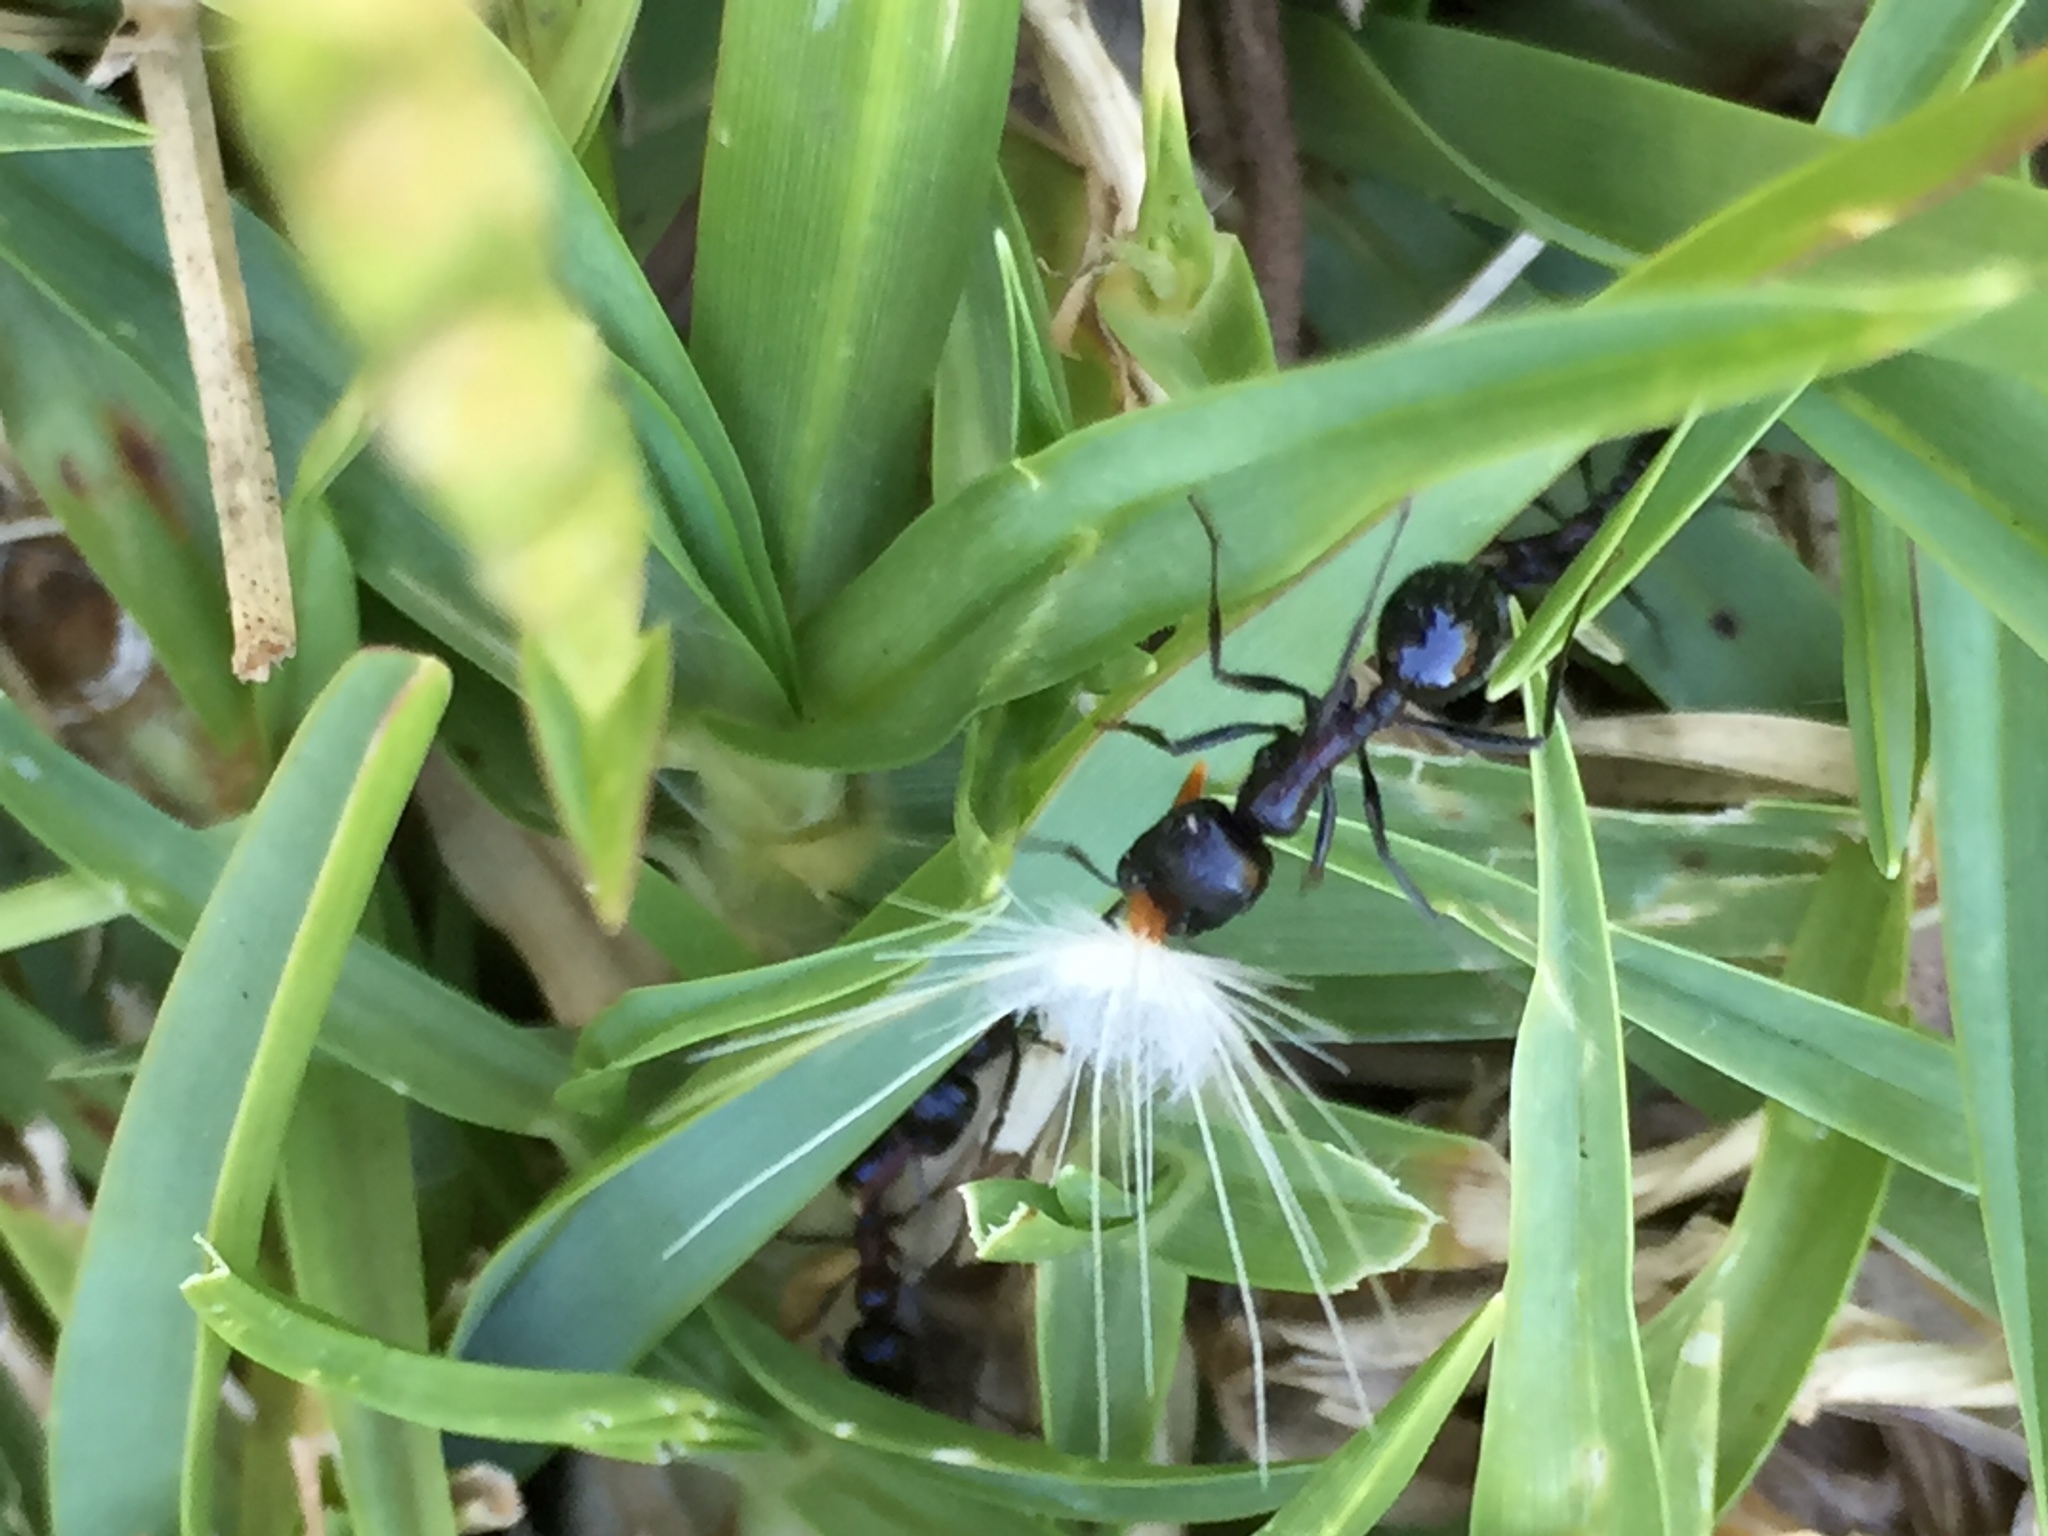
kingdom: Animalia
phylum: Arthropoda
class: Insecta
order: Hymenoptera
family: Formicidae
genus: Messor
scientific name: Messor capensis
